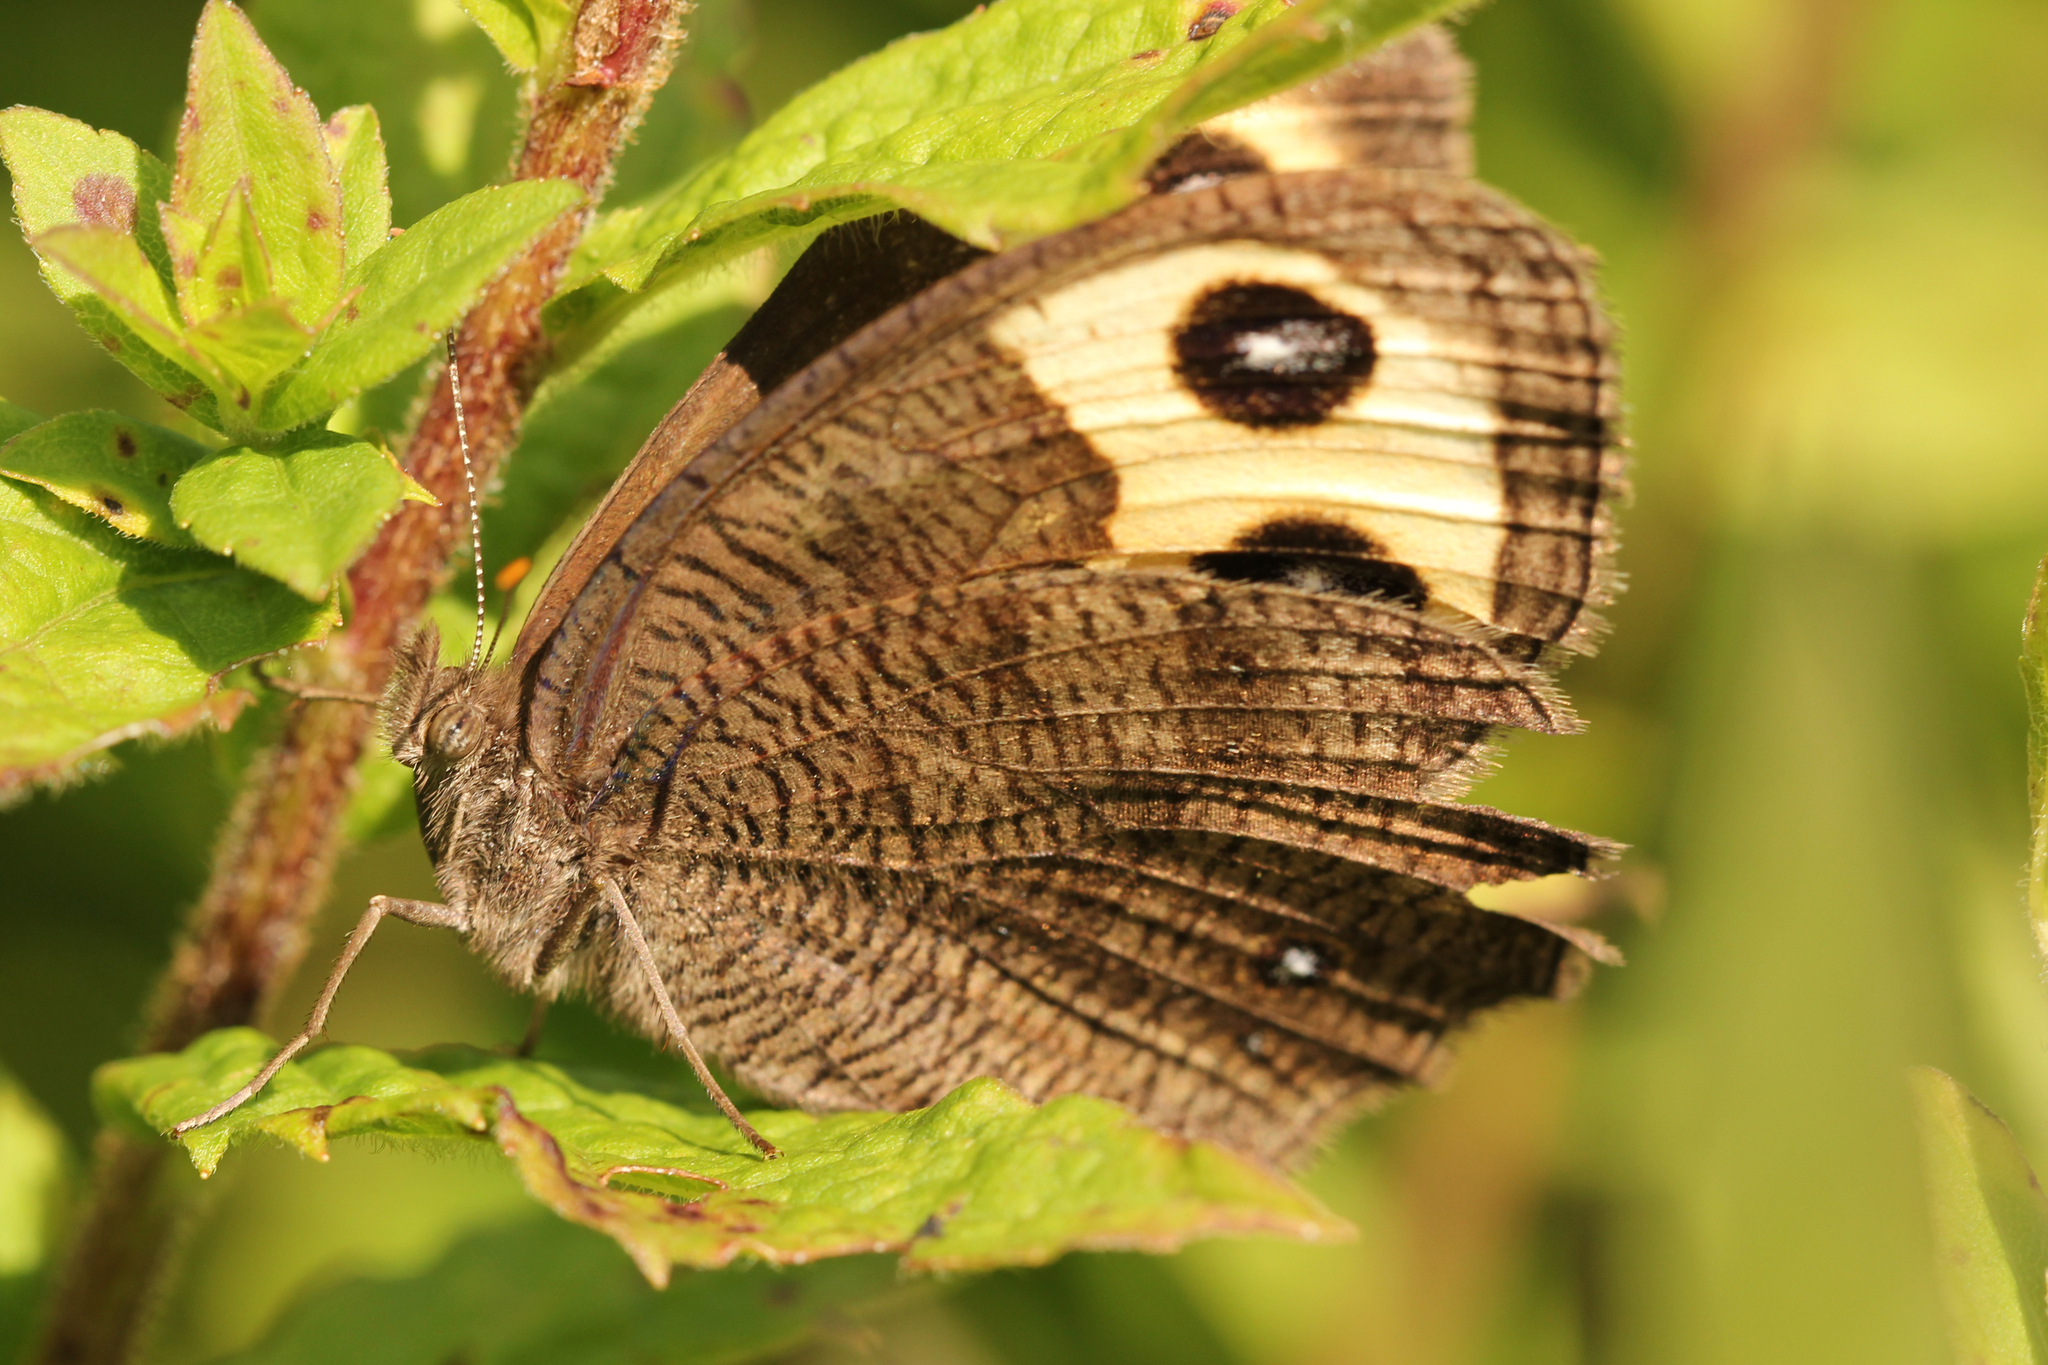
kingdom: Animalia
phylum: Arthropoda
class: Insecta
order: Lepidoptera
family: Nymphalidae
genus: Cercyonis
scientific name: Cercyonis pegala
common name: Common wood-nymph
